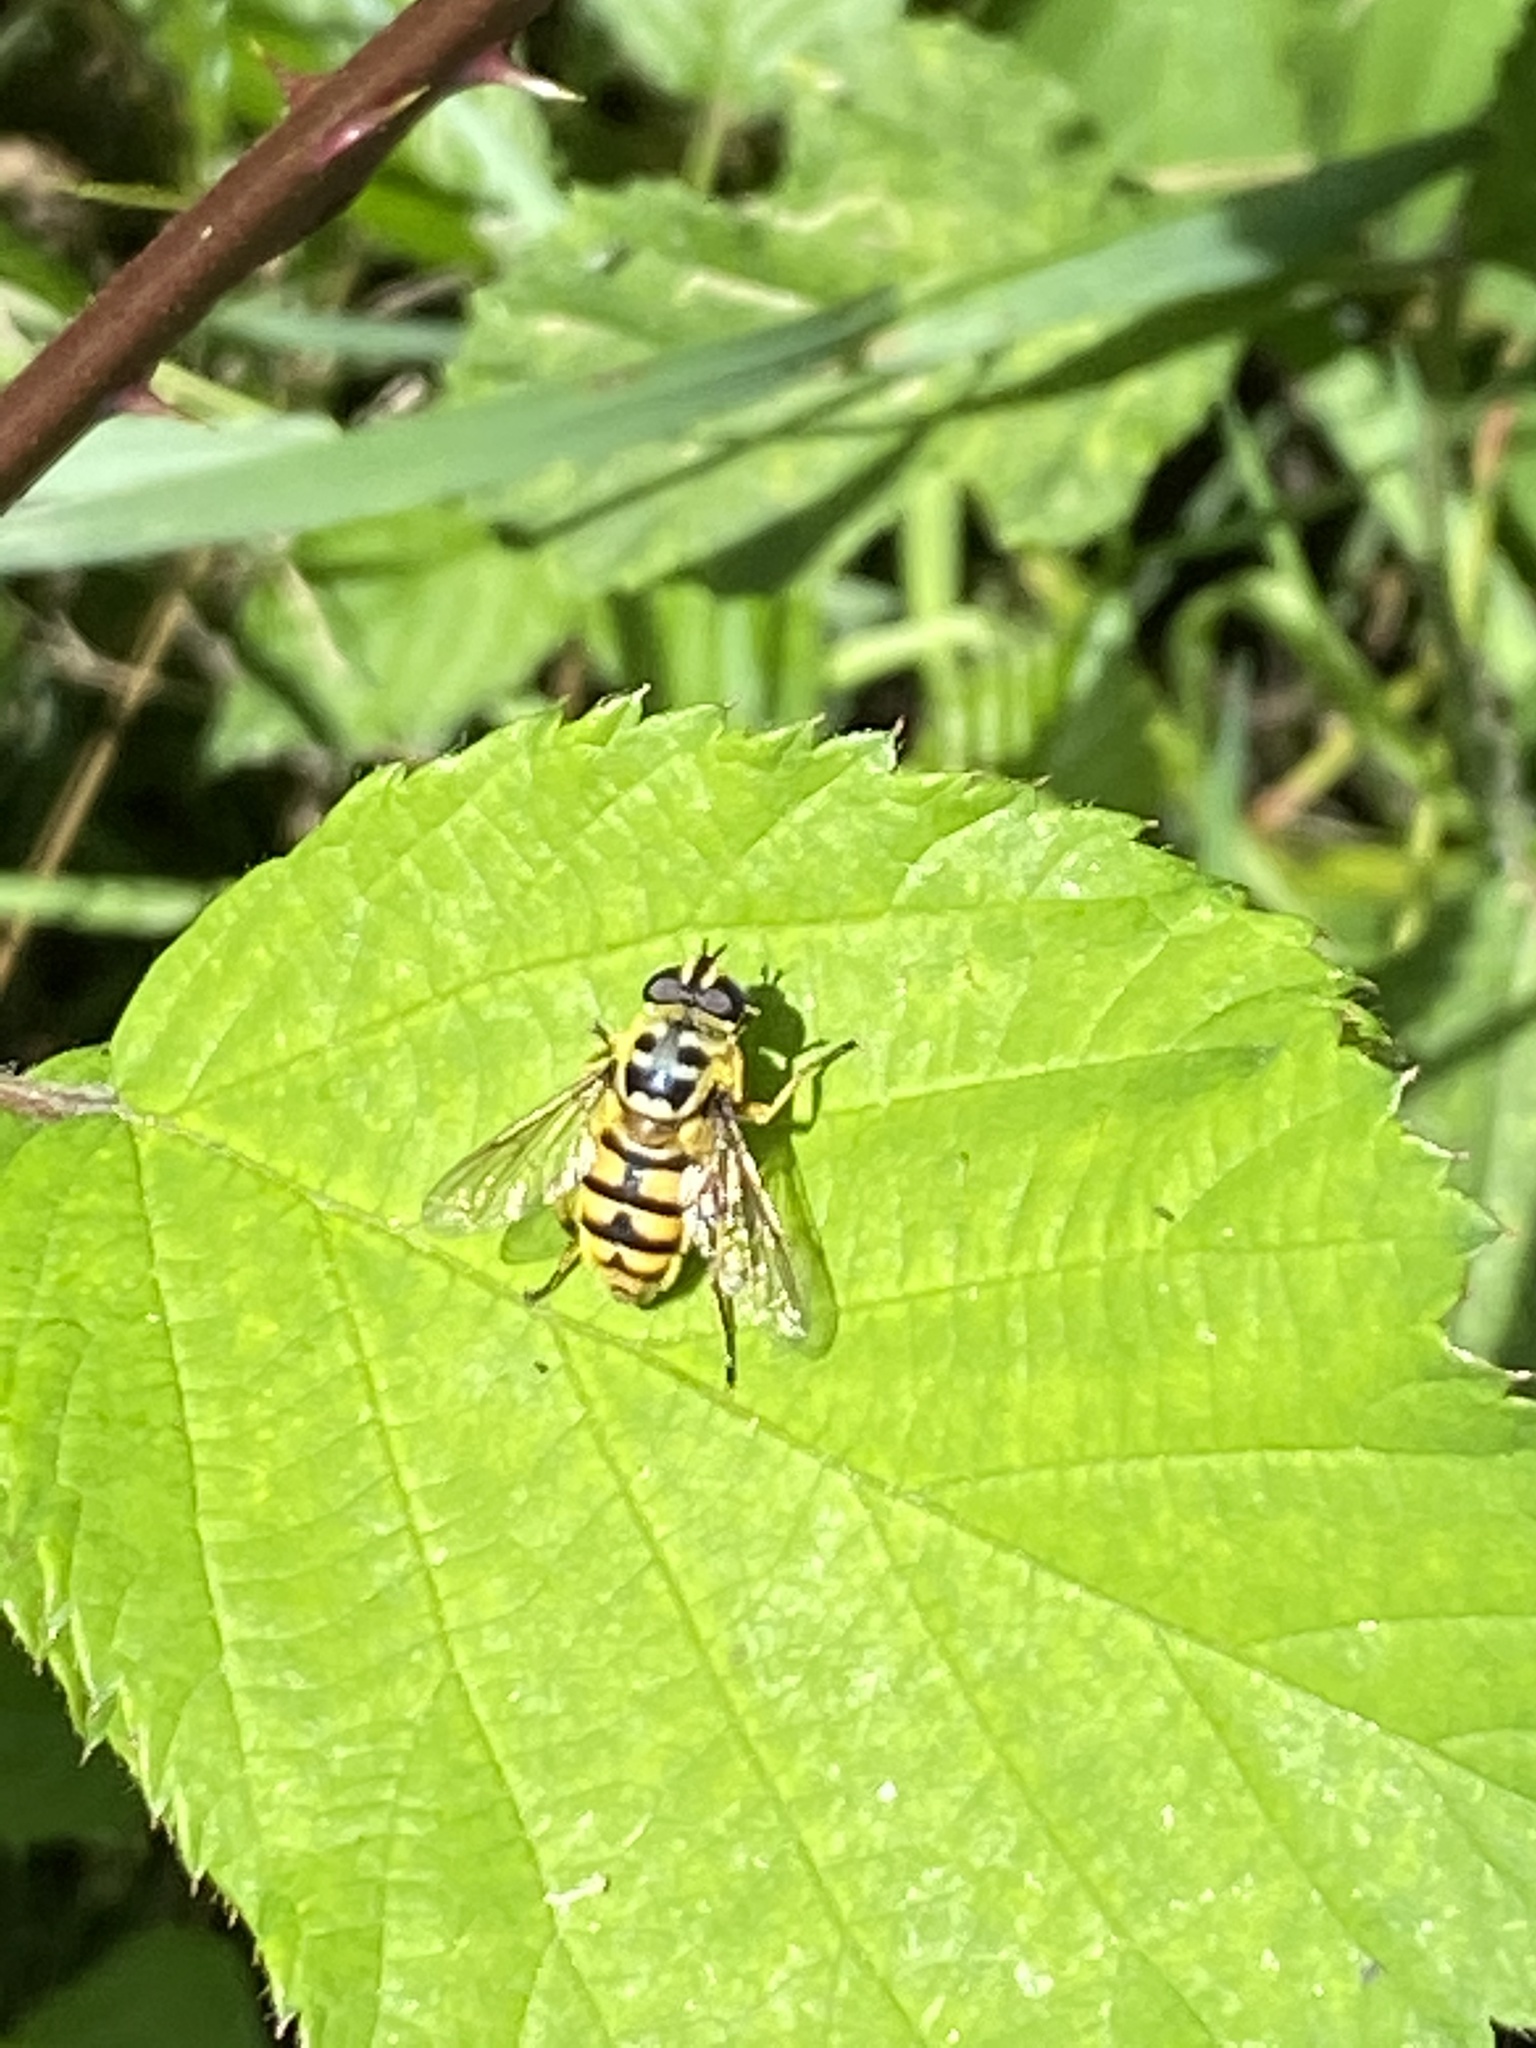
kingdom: Animalia
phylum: Arthropoda
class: Insecta
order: Diptera
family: Syrphidae
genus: Myathropa
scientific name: Myathropa florea
